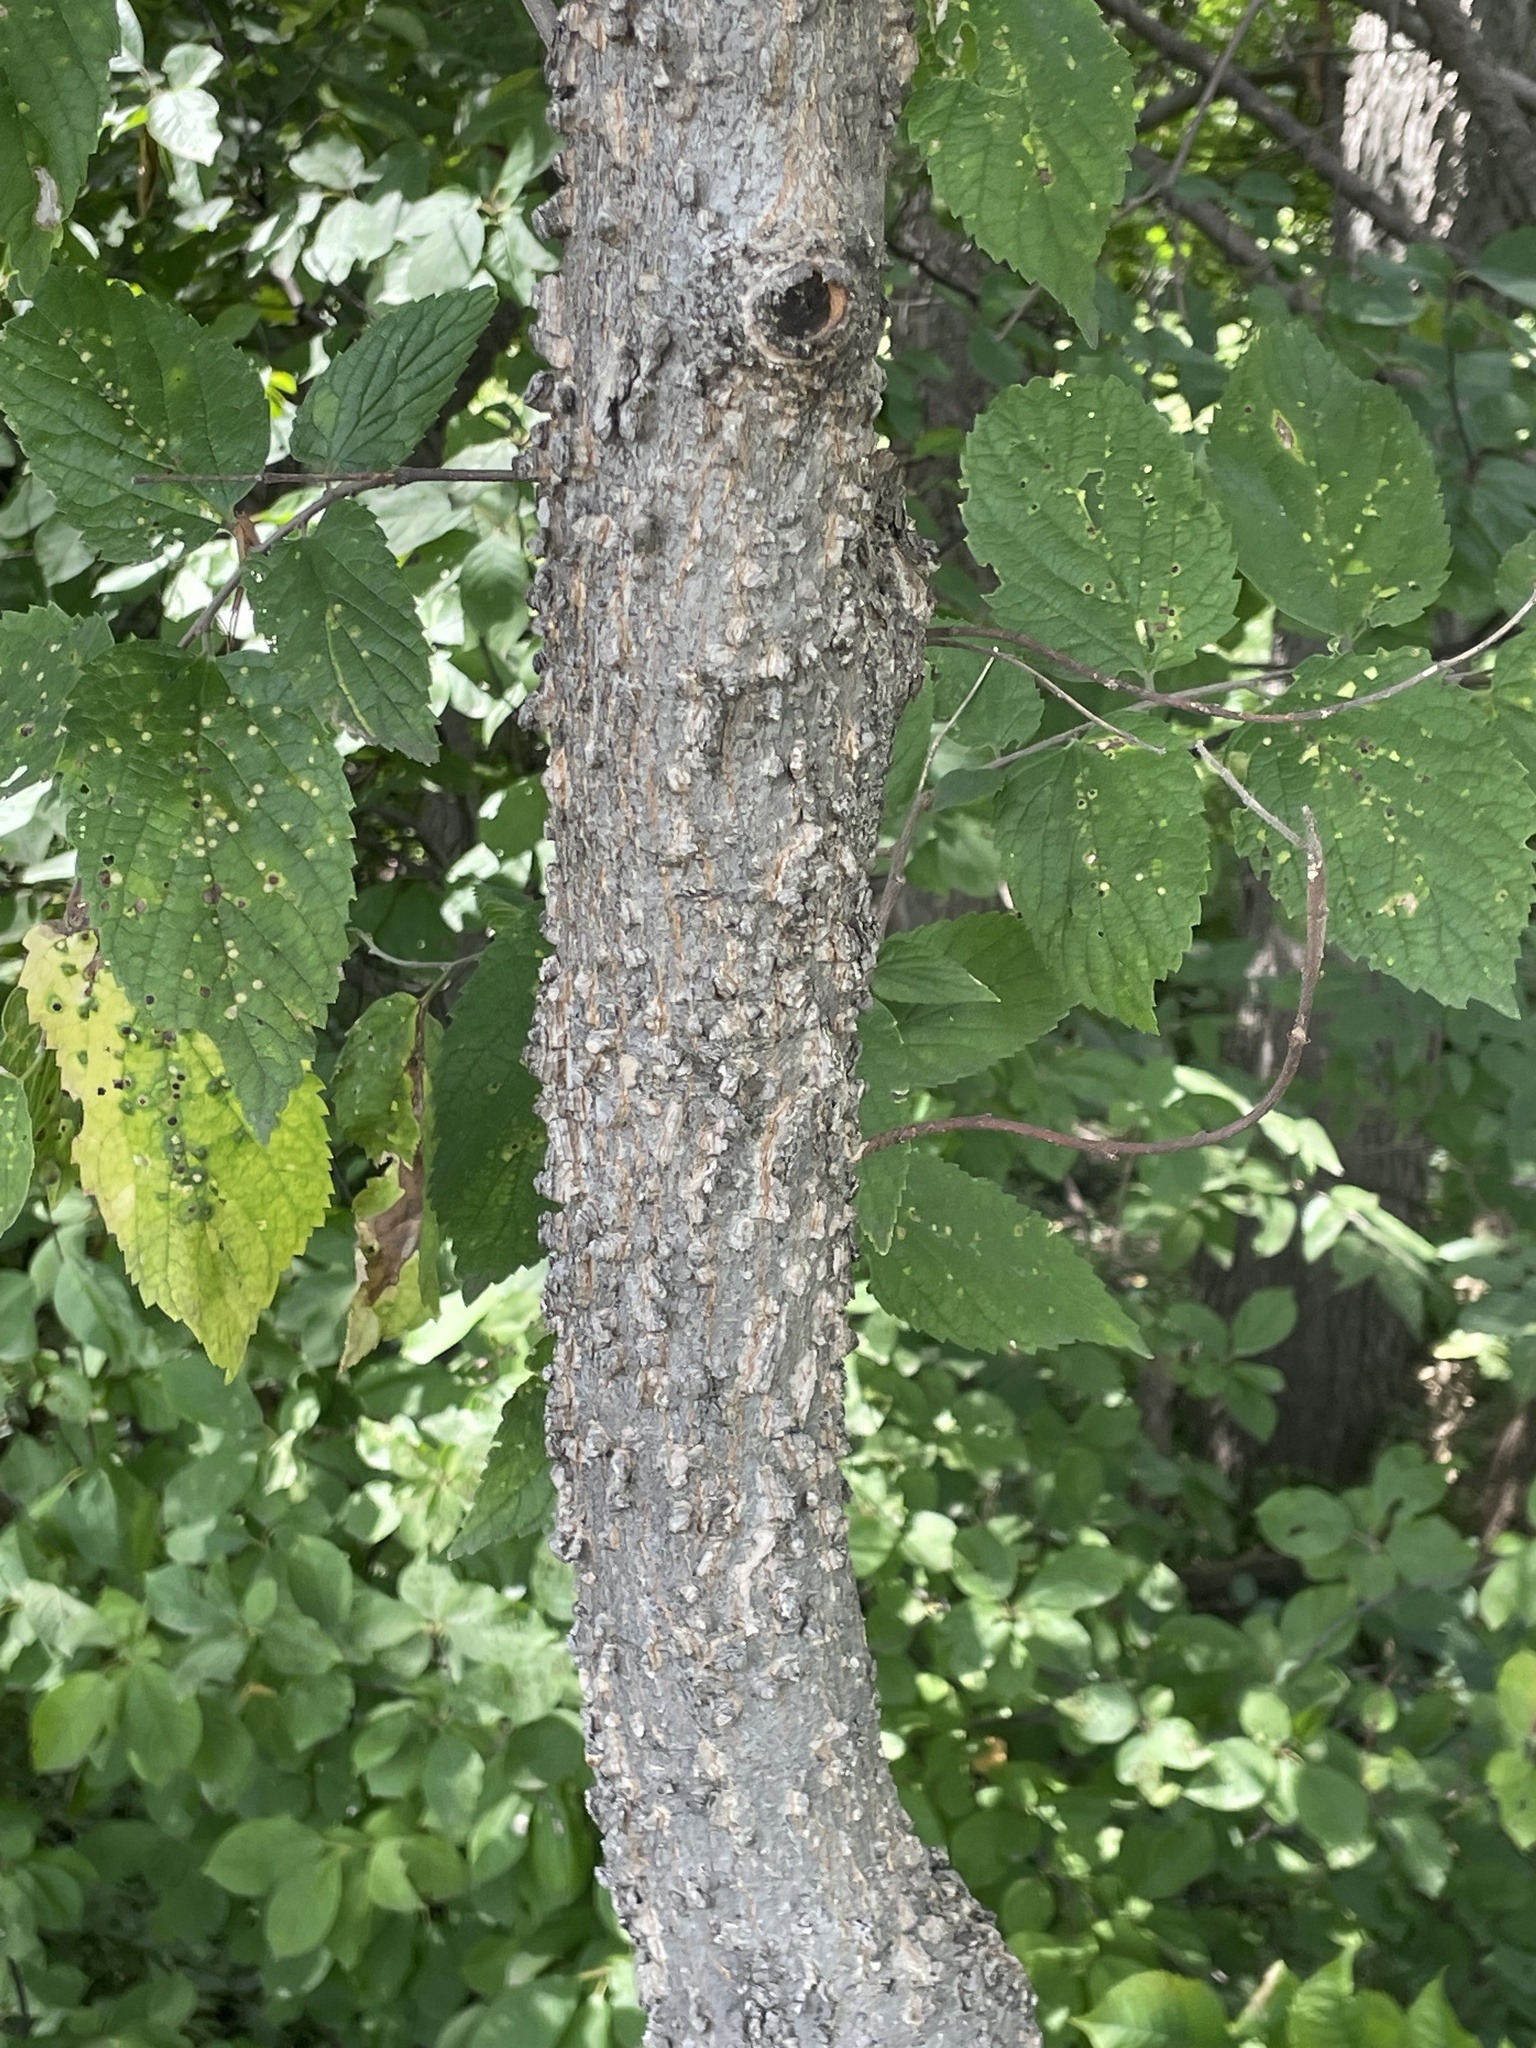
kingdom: Plantae
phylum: Tracheophyta
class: Magnoliopsida
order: Rosales
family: Cannabaceae
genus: Celtis
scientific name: Celtis occidentalis
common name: Common hackberry
